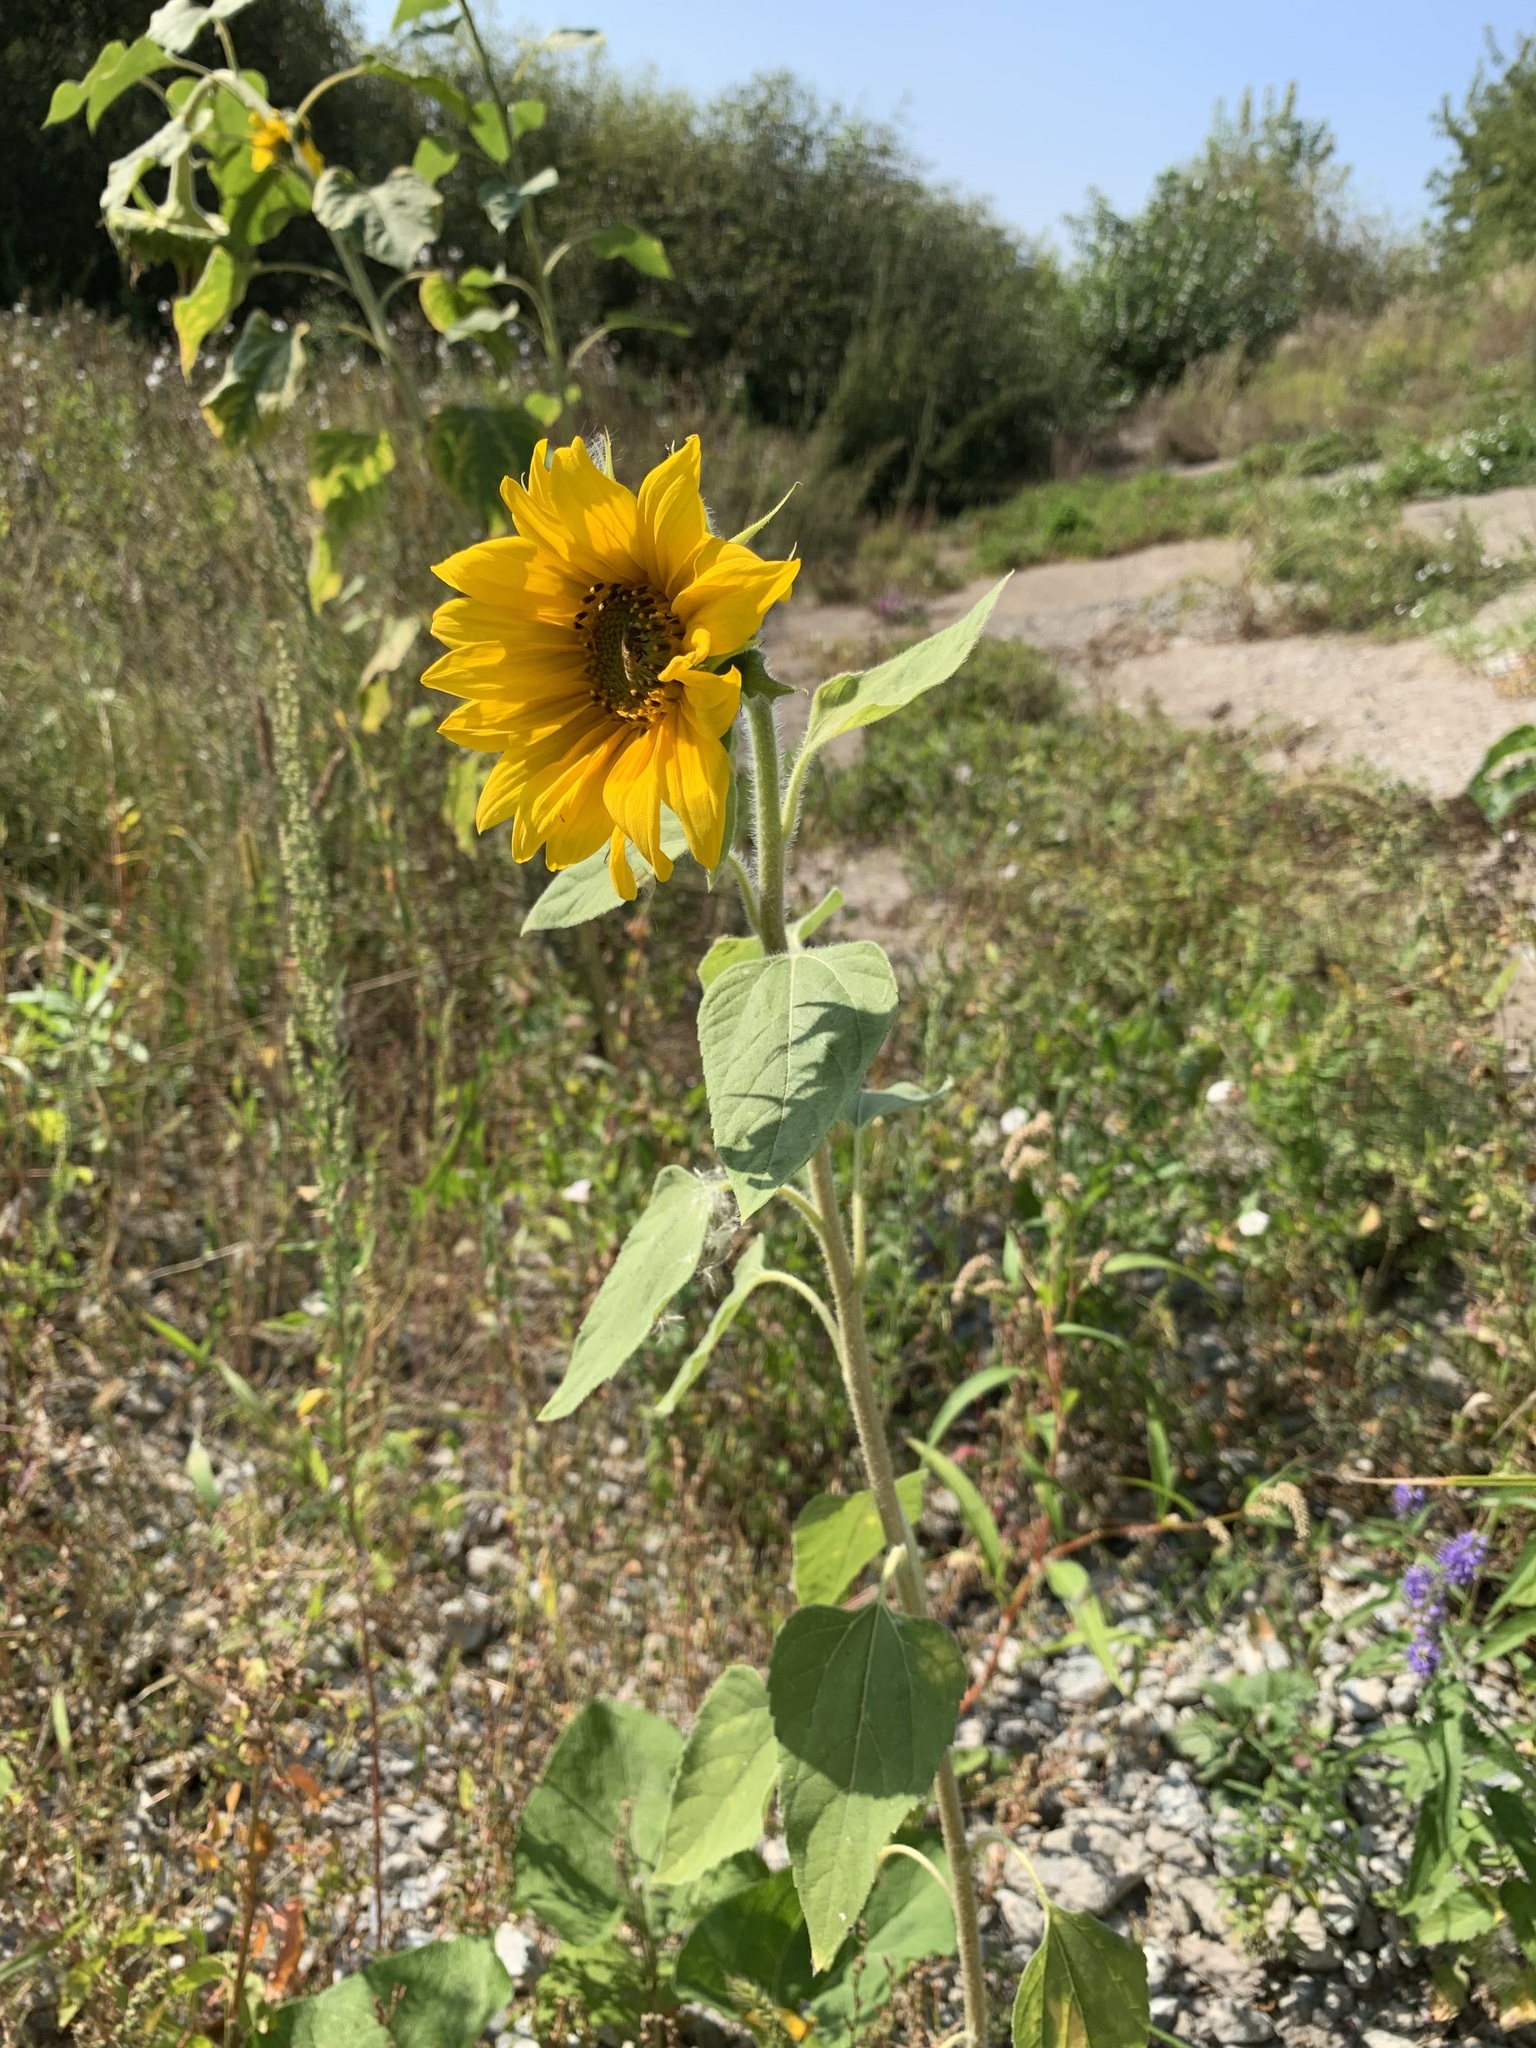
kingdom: Plantae
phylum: Tracheophyta
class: Magnoliopsida
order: Asterales
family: Asteraceae
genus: Helianthus
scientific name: Helianthus annuus
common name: Sunflower
